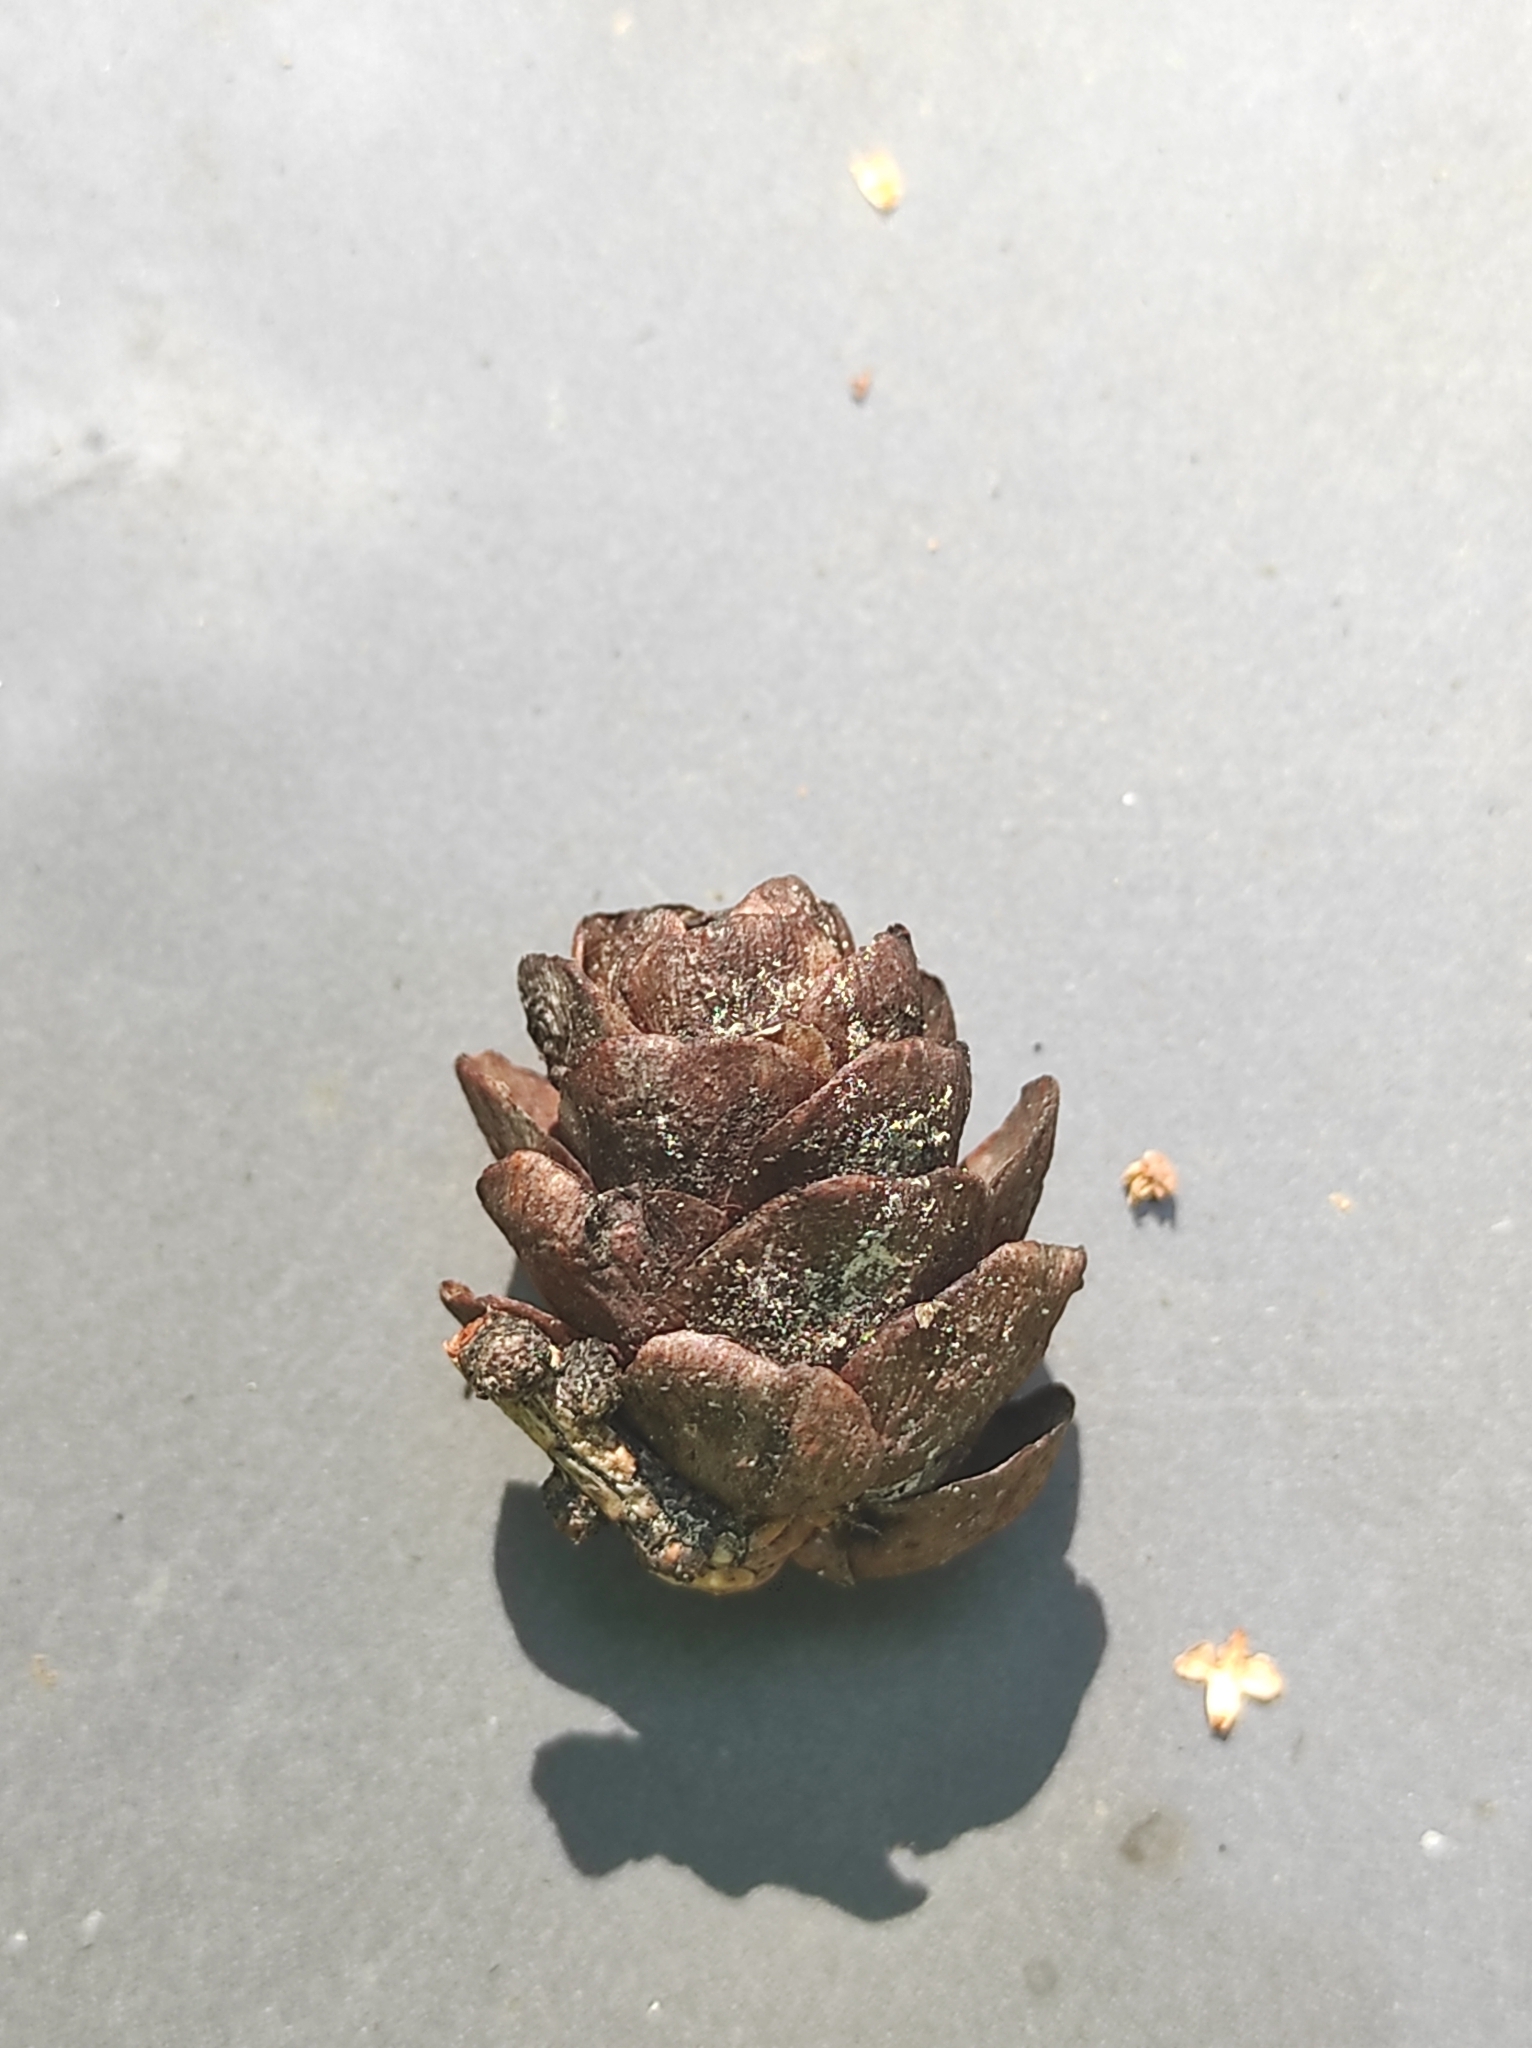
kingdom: Plantae
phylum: Tracheophyta
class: Pinopsida
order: Pinales
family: Pinaceae
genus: Larix
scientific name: Larix sibirica
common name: Siberian larch
